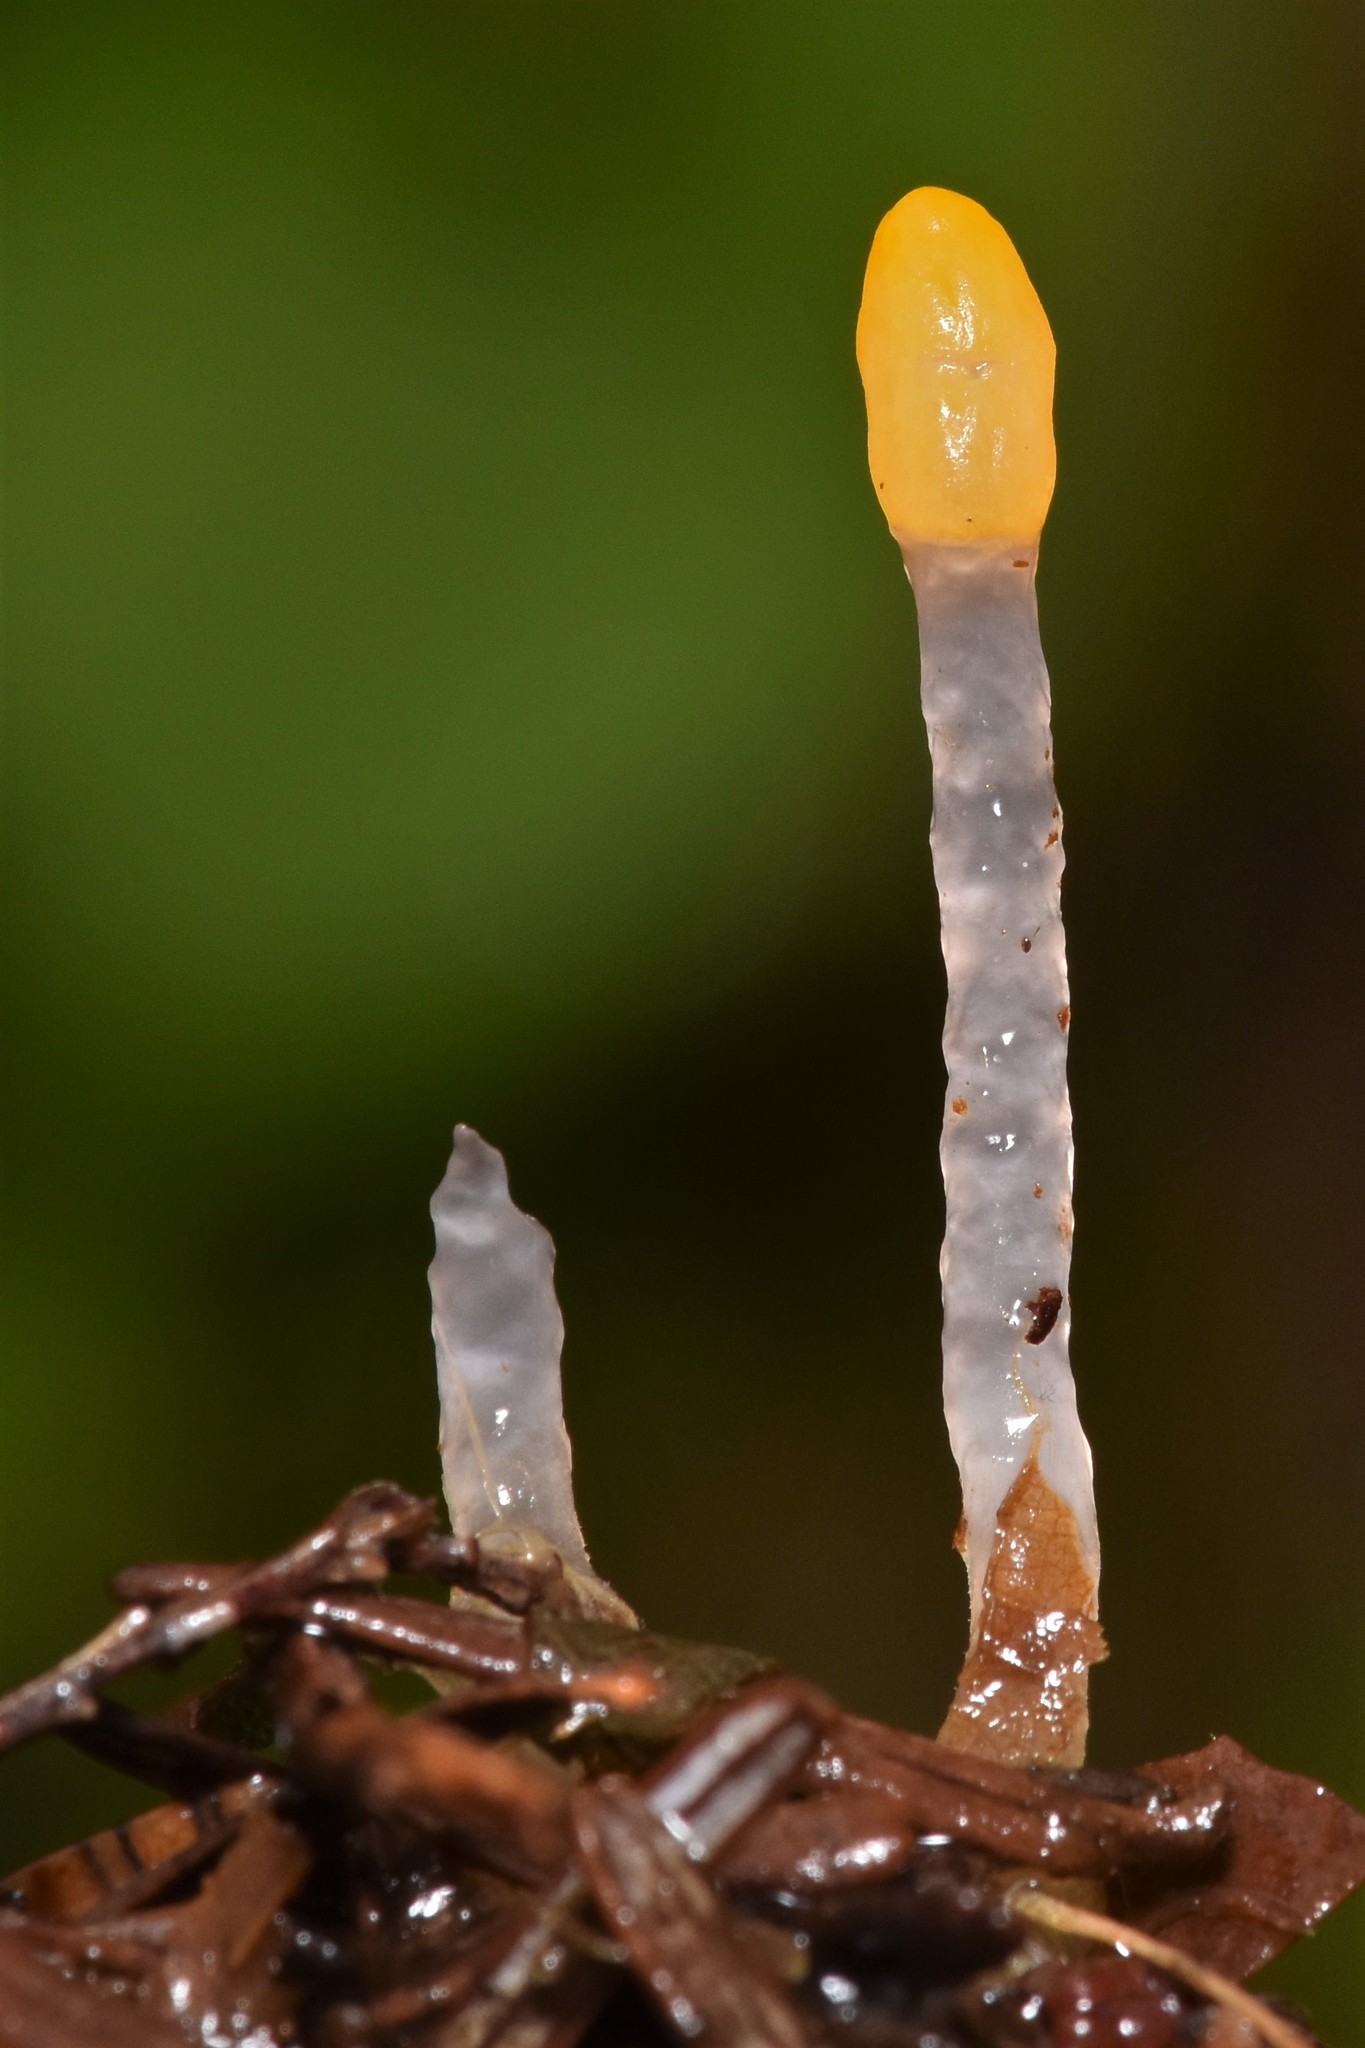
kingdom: Fungi
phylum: Ascomycota
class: Leotiomycetes
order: Helotiales
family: Sclerotiniaceae
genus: Mitrula
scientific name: Mitrula elegans
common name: Swamp beacon
